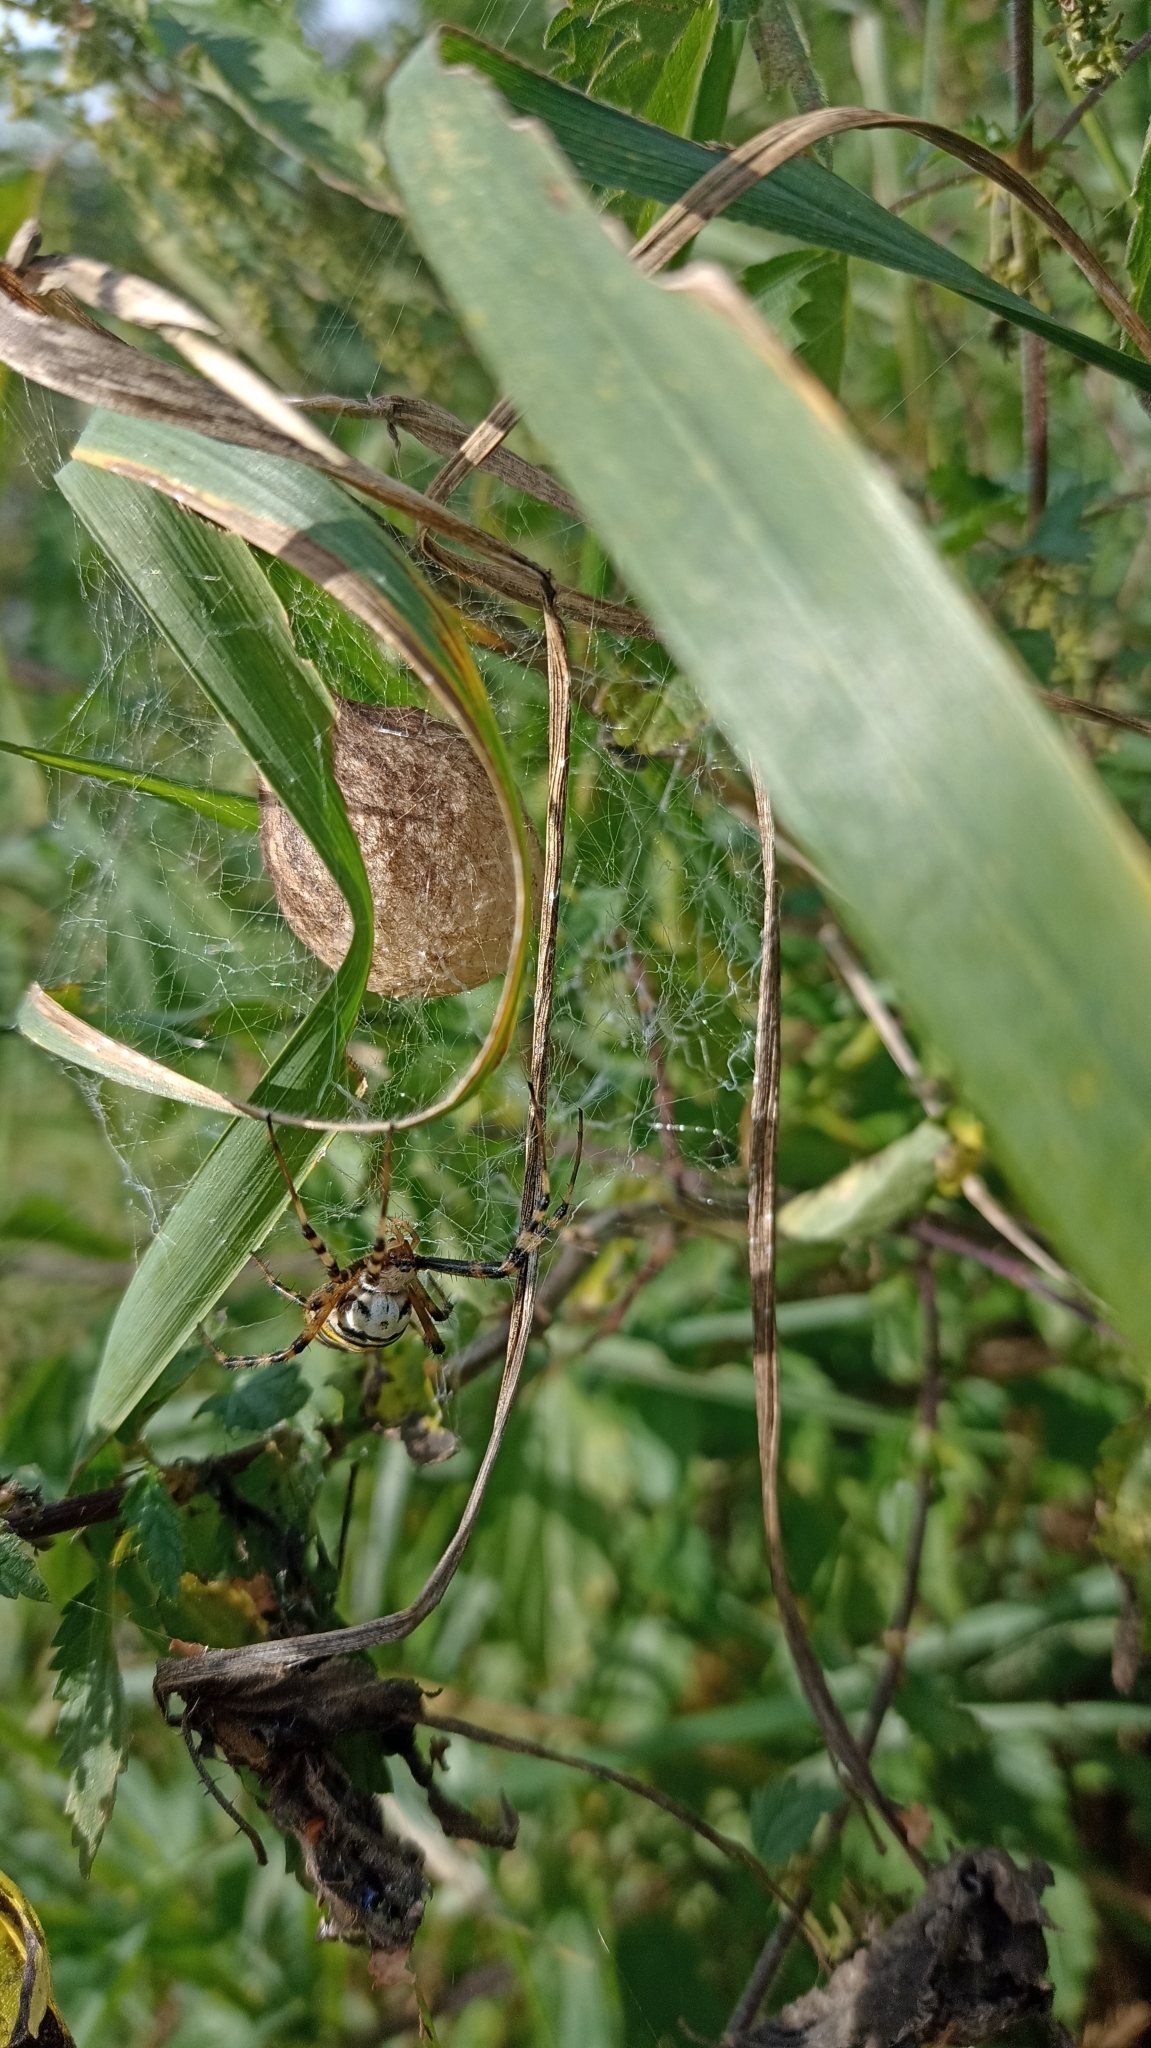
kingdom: Animalia
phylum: Arthropoda
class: Arachnida
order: Araneae
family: Araneidae
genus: Argiope
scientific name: Argiope bruennichi
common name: Wasp spider
